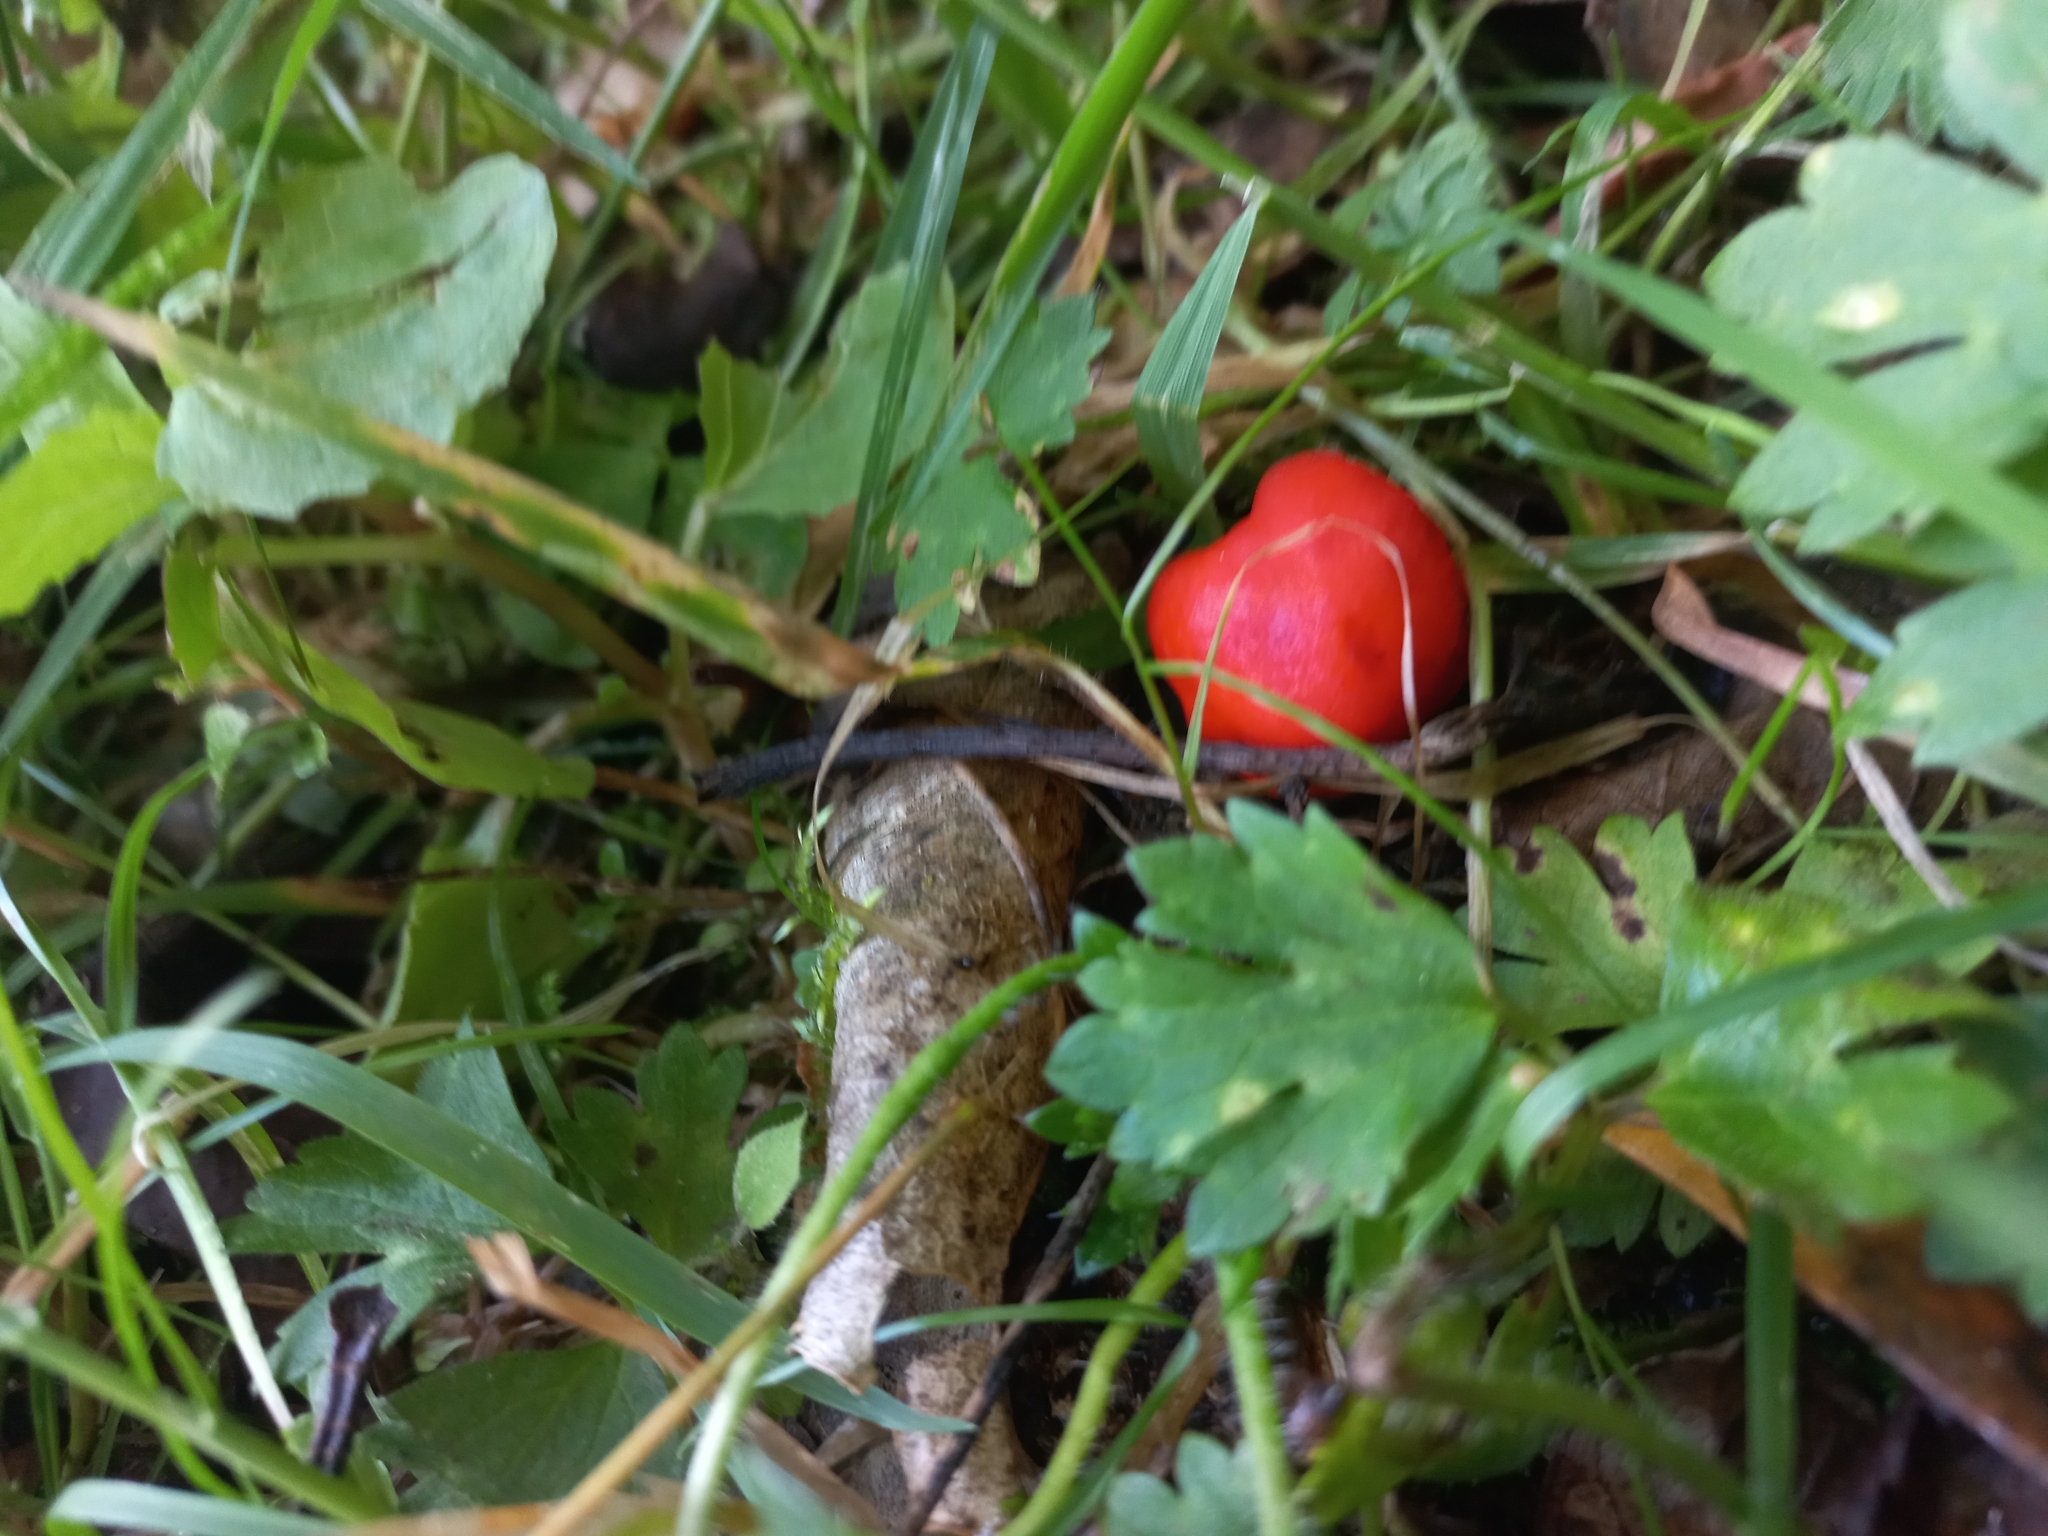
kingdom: Fungi
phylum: Basidiomycota
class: Agaricomycetes
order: Agaricales
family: Strophariaceae
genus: Leratiomyces
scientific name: Leratiomyces erythrocephalus
